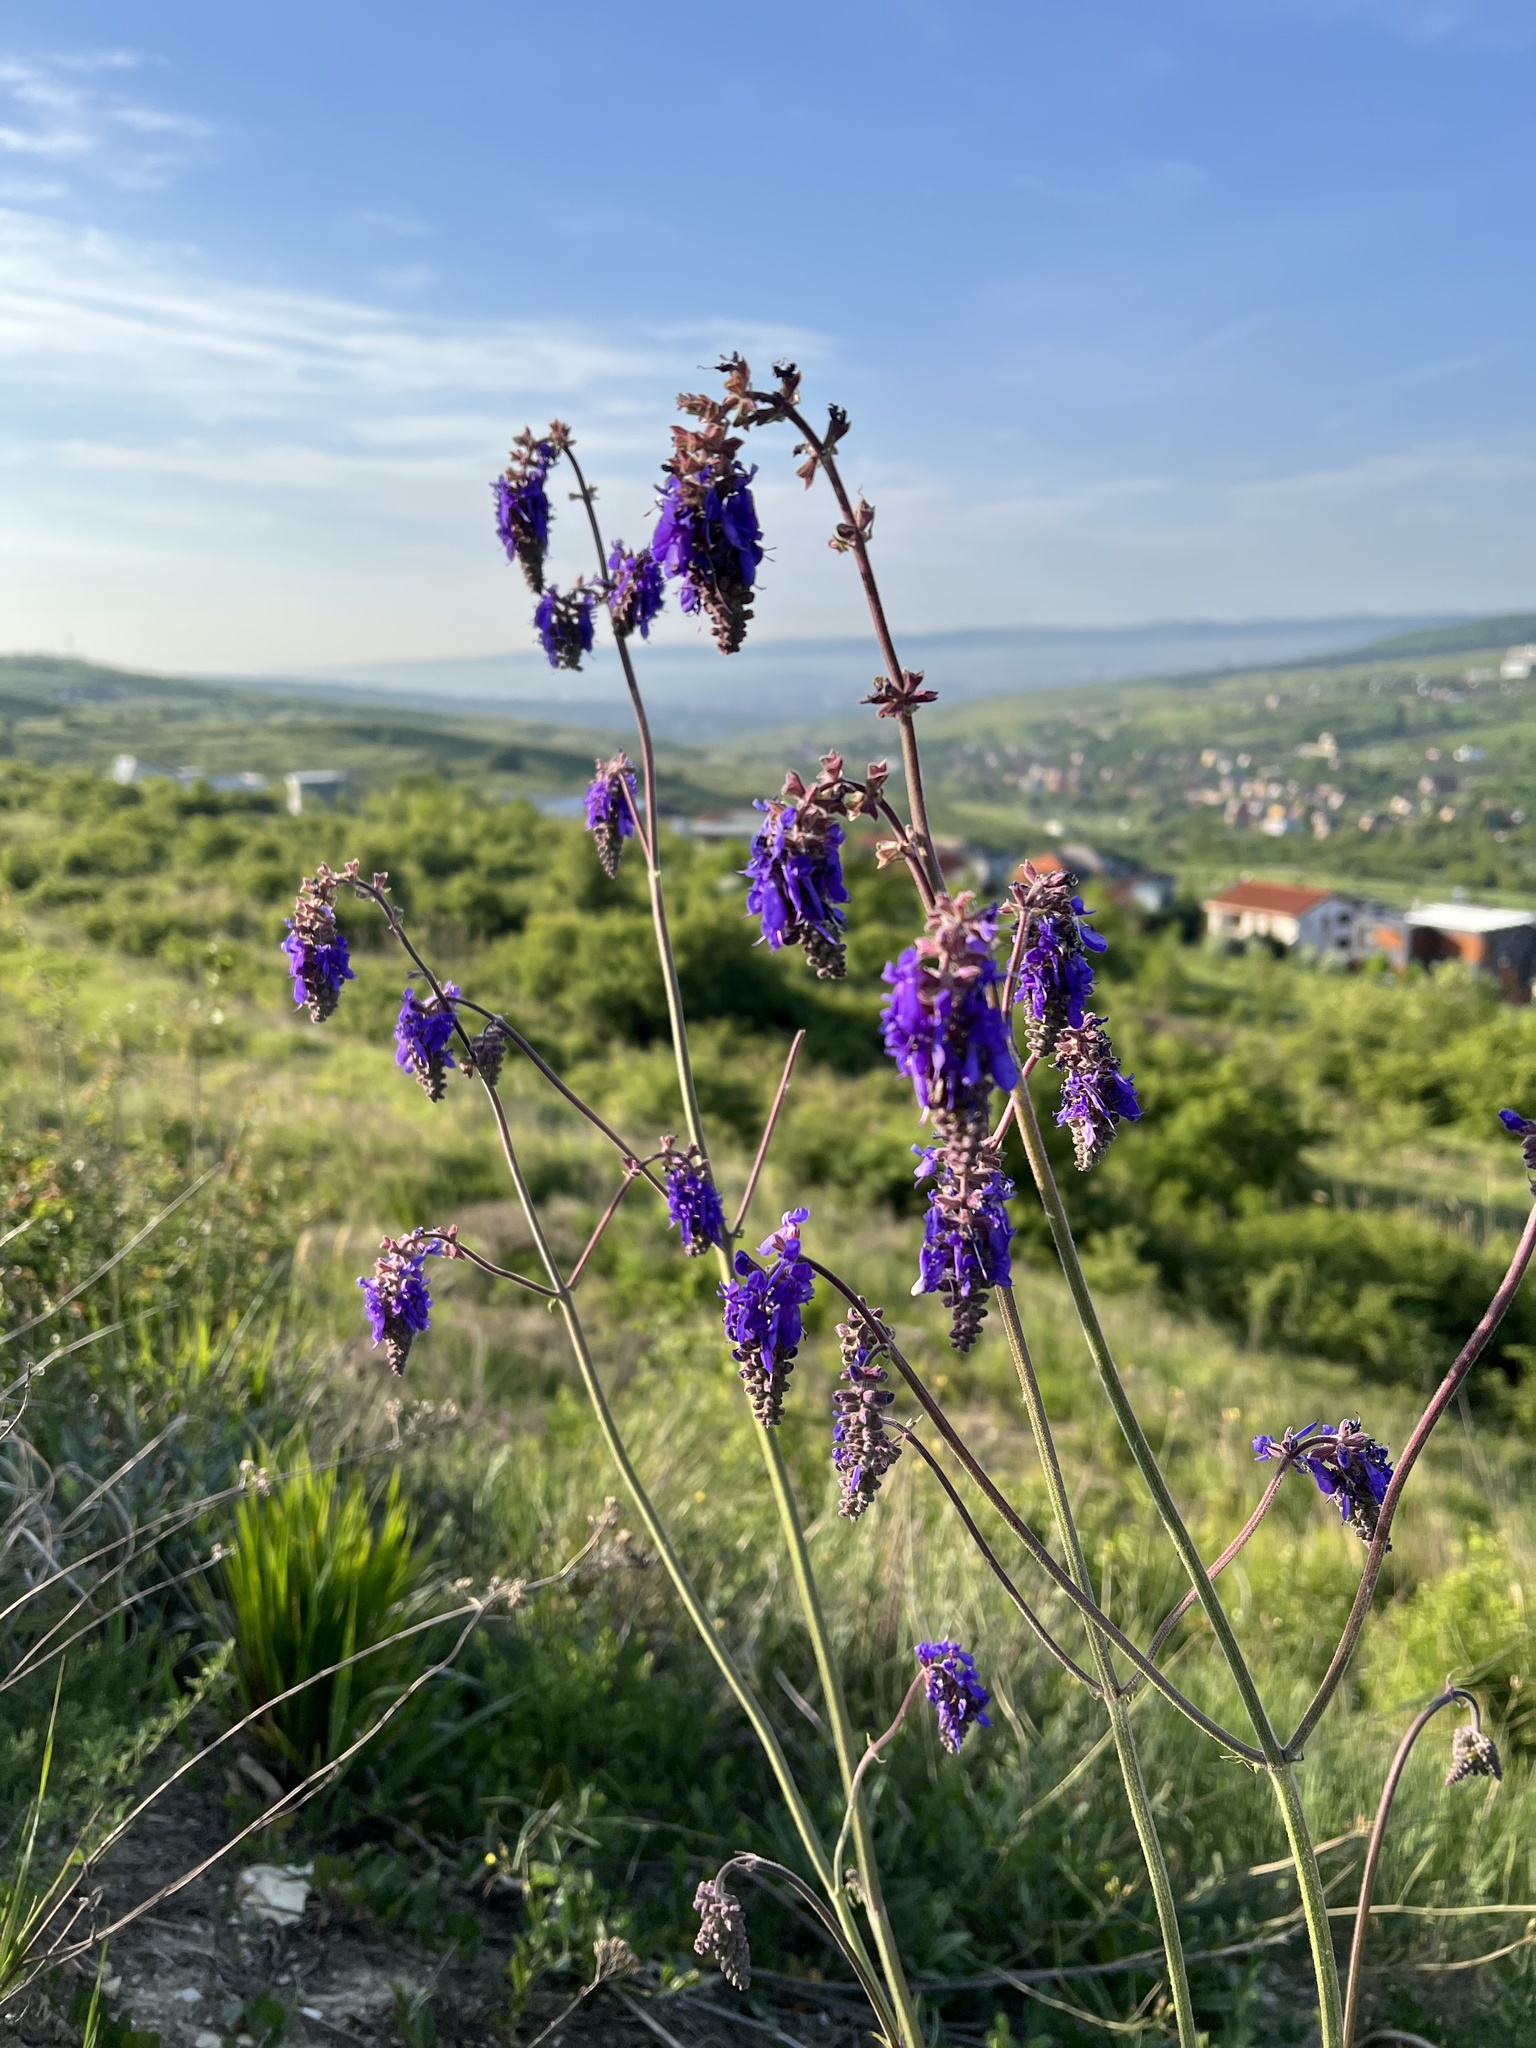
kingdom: Plantae
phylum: Tracheophyta
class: Magnoliopsida
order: Lamiales
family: Lamiaceae
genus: Salvia
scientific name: Salvia nutans
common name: Nodding sage
